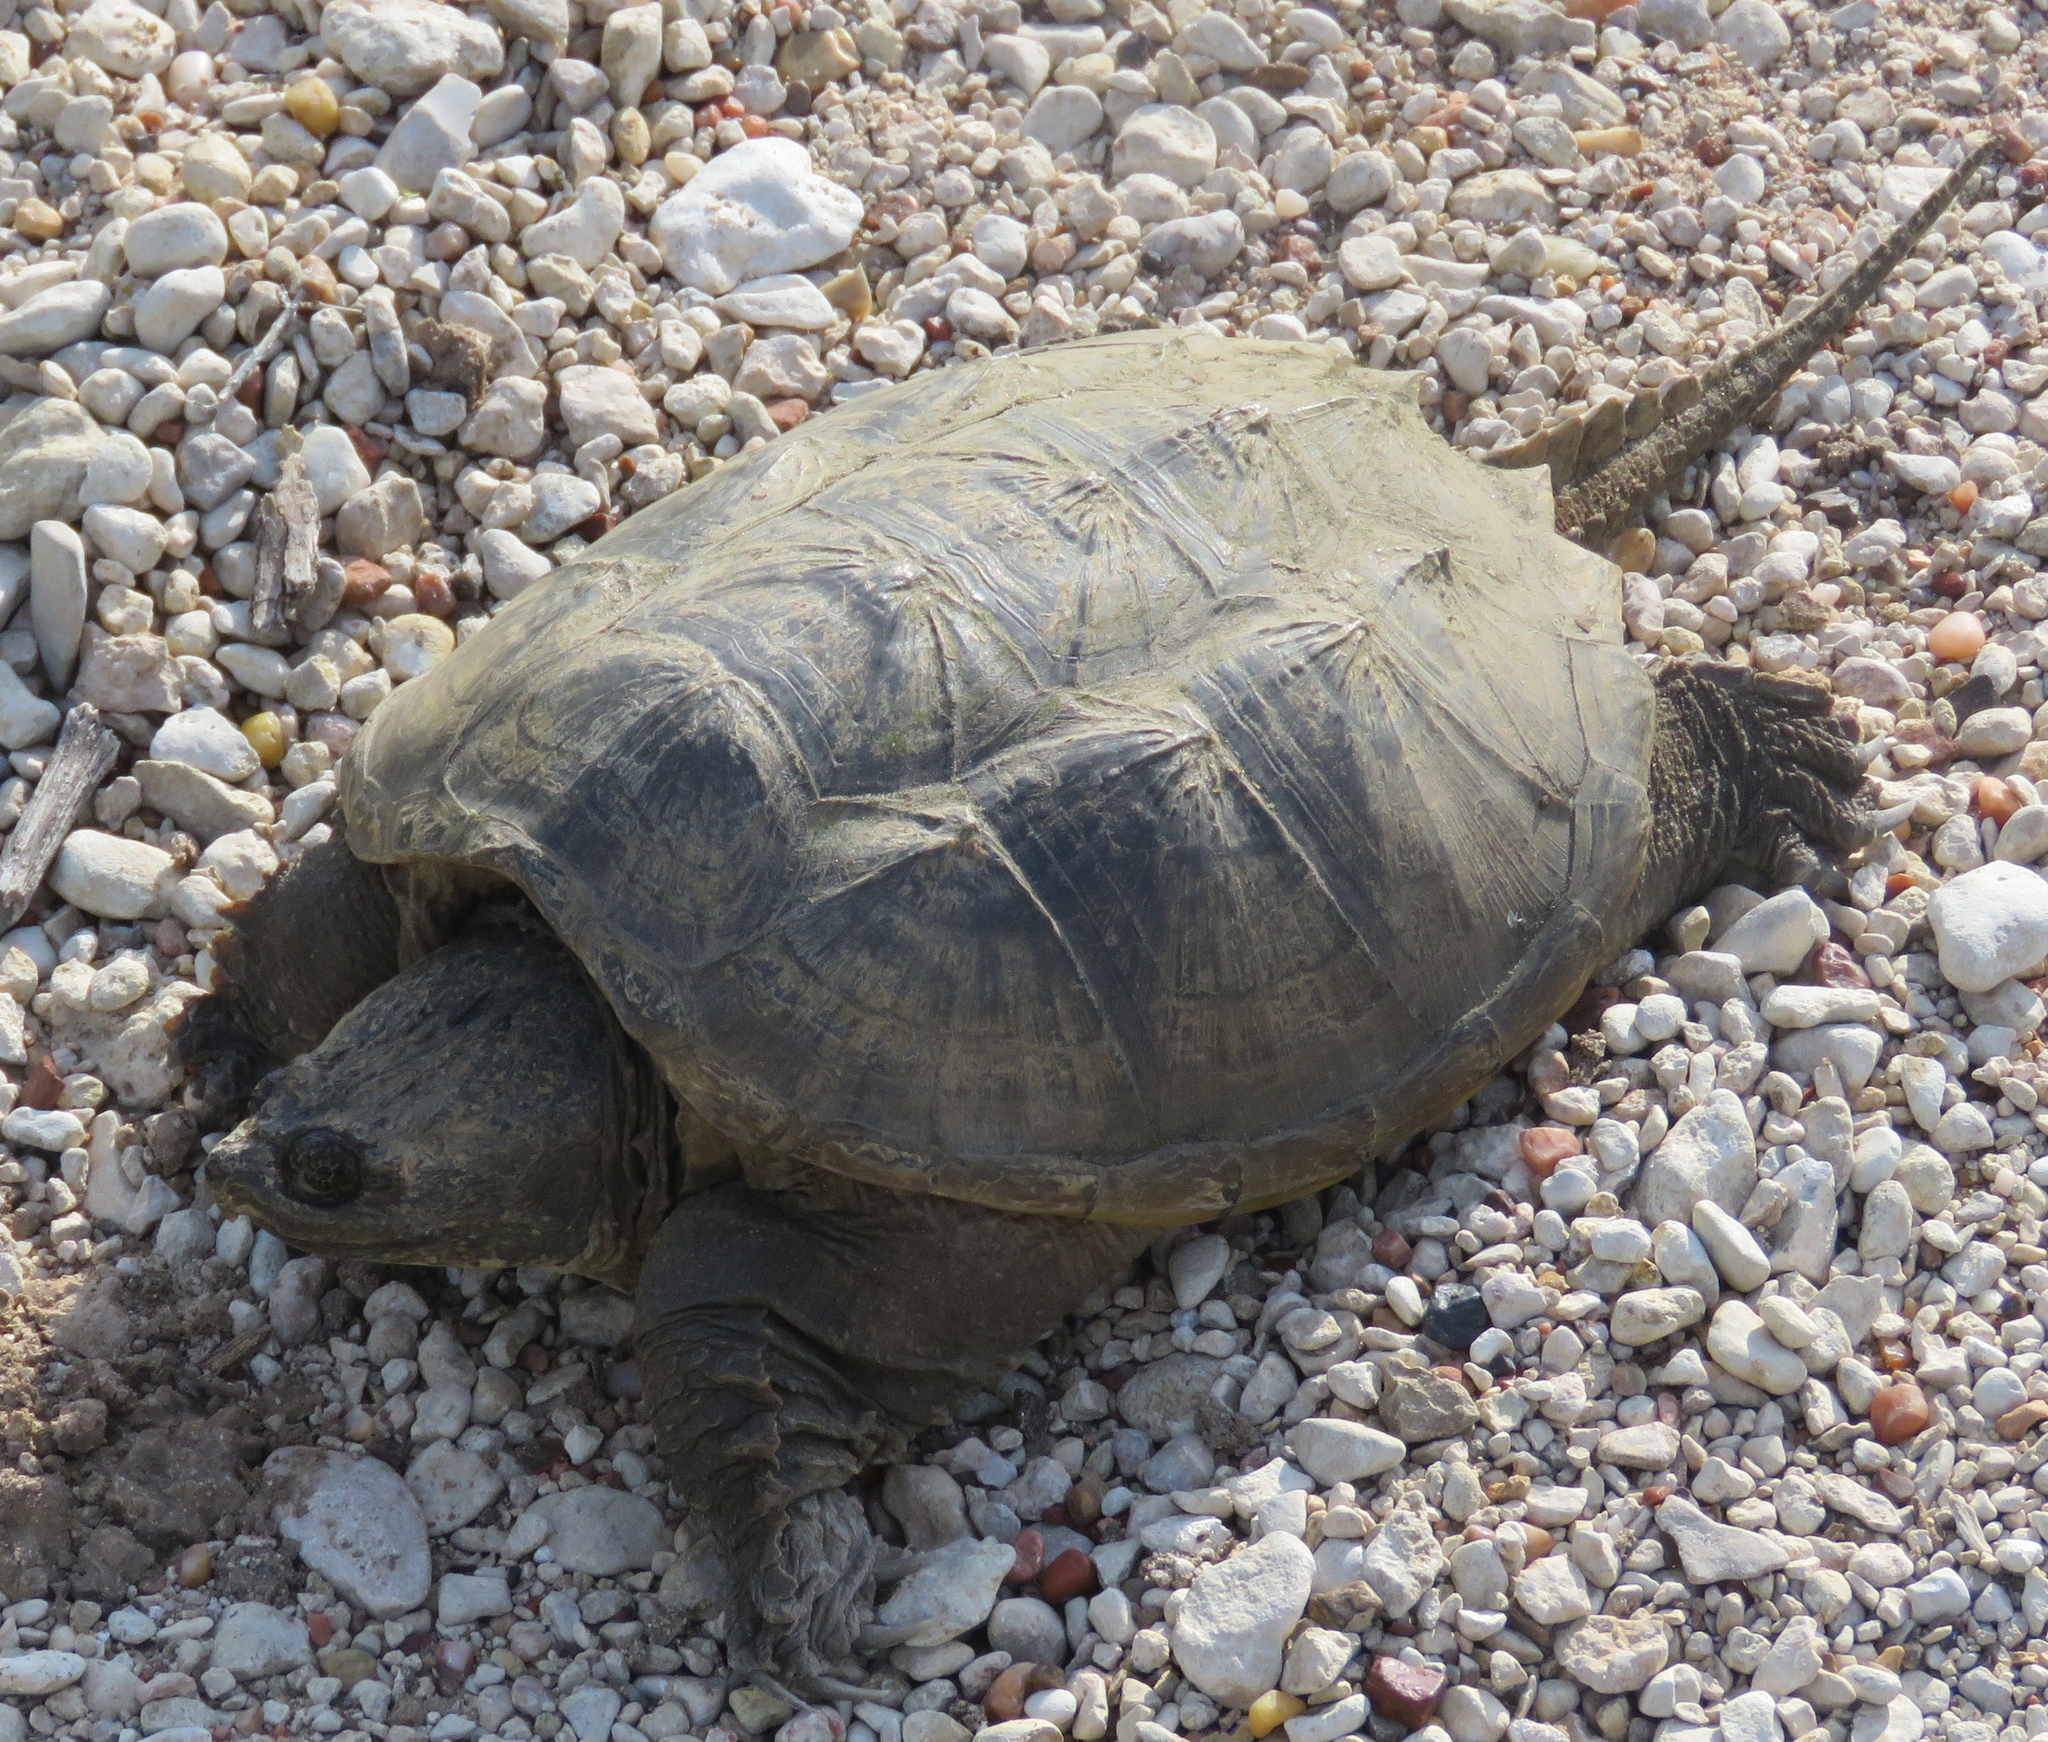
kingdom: Animalia
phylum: Chordata
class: Testudines
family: Chelydridae
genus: Chelydra
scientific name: Chelydra serpentina
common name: Common snapping turtle
